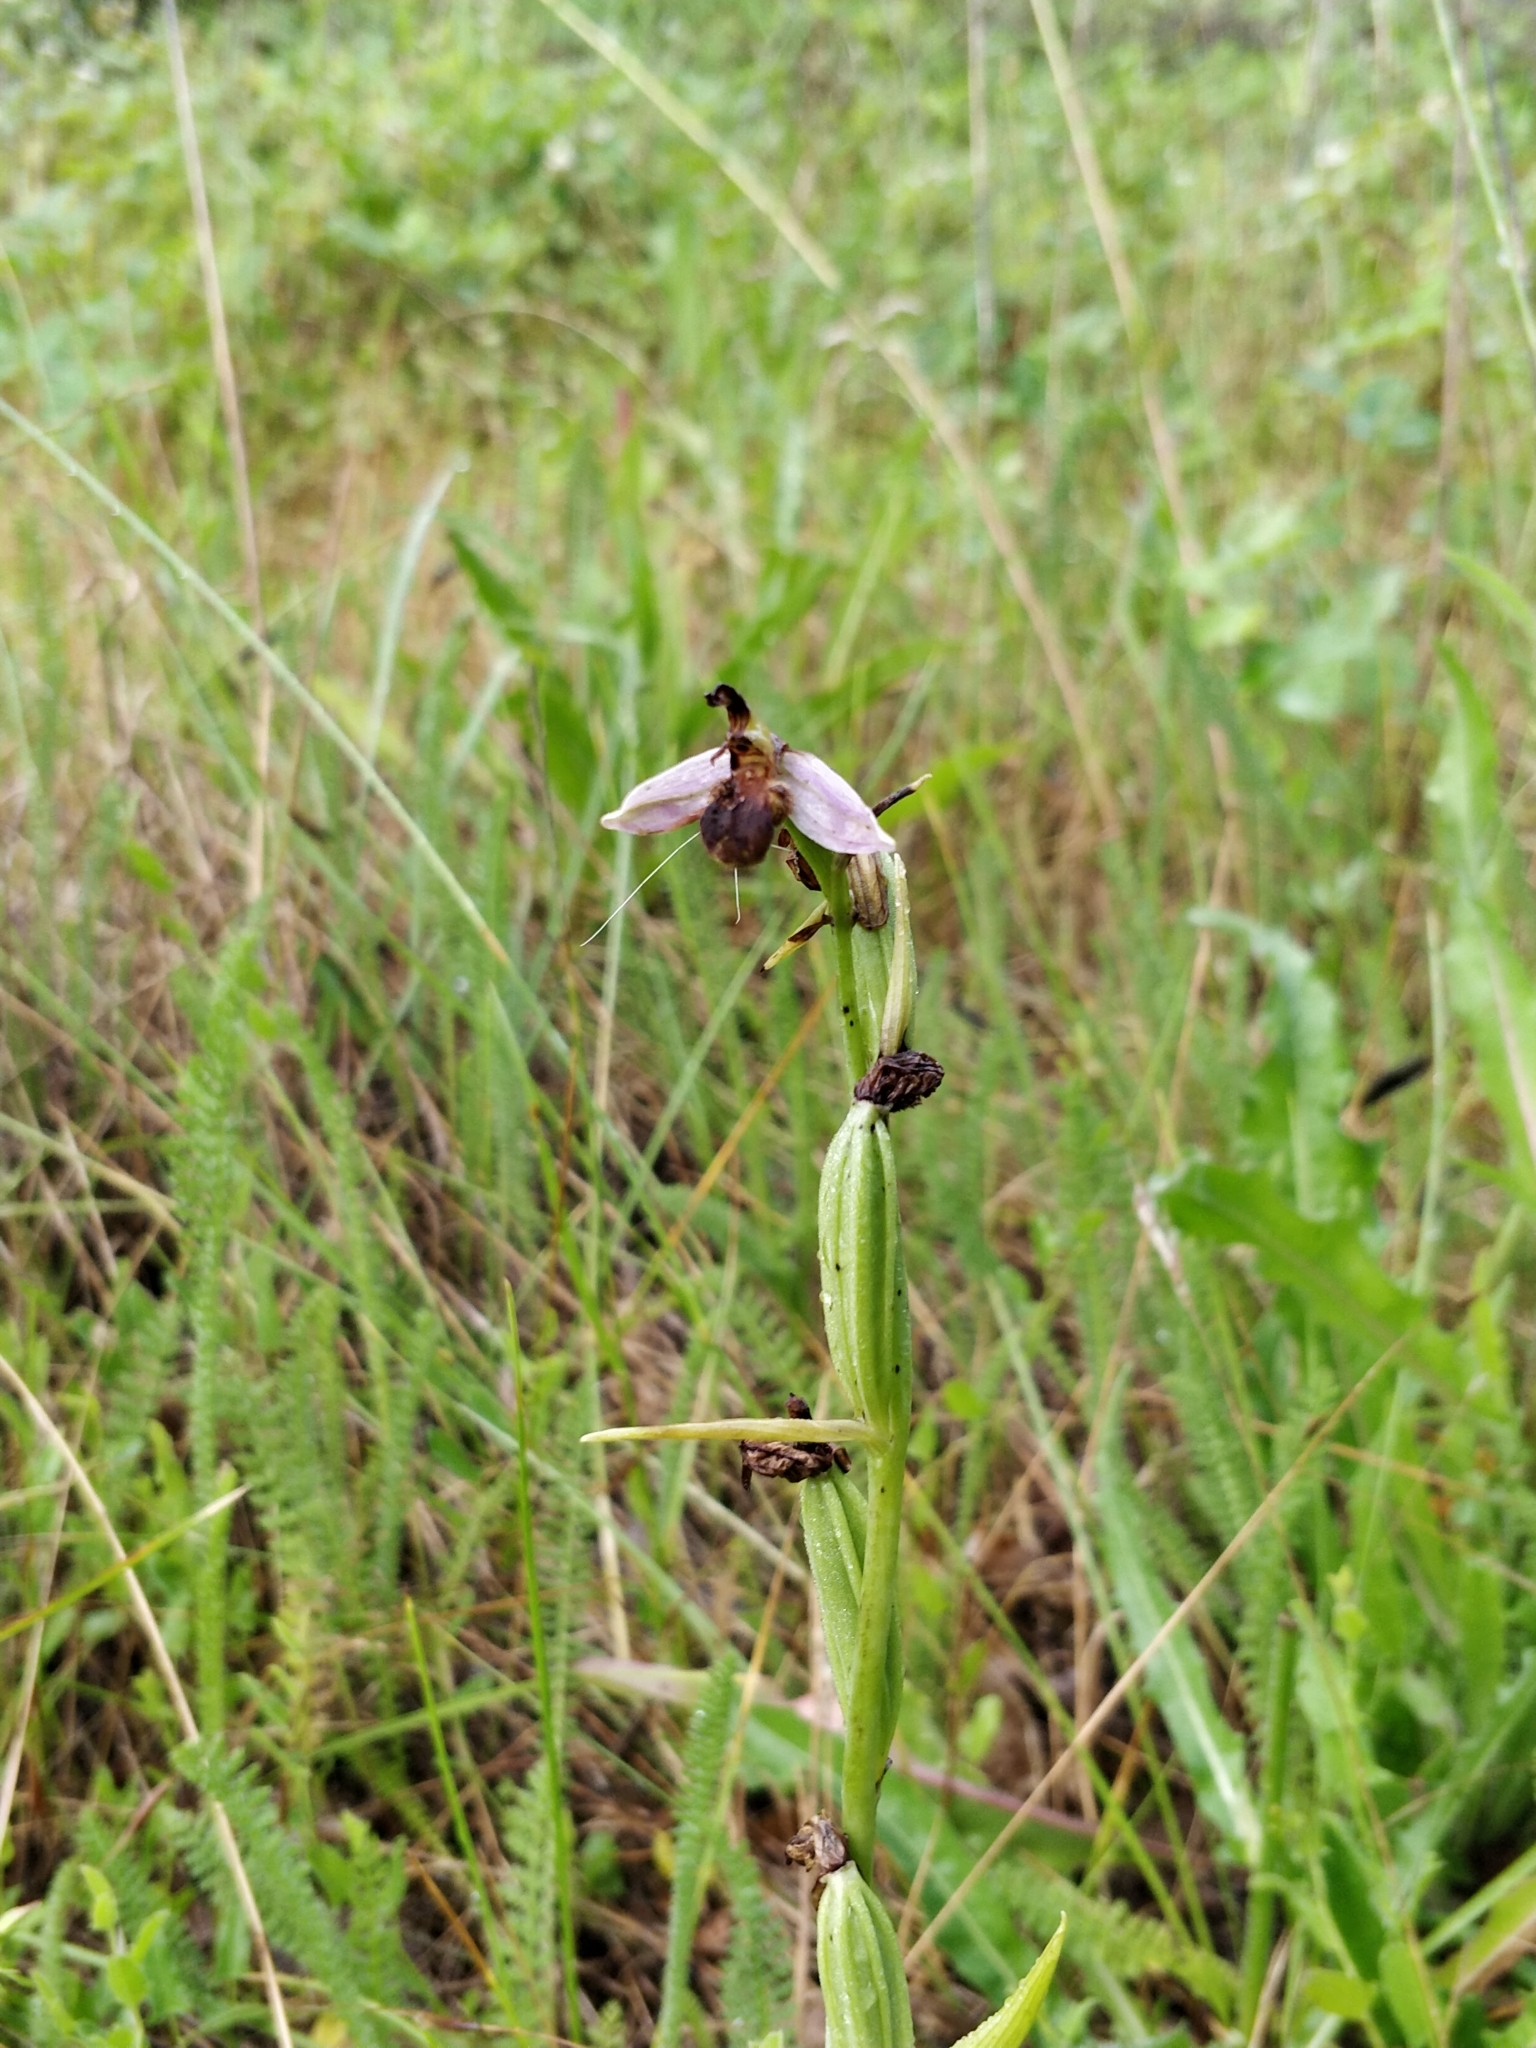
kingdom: Plantae
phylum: Tracheophyta
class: Liliopsida
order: Asparagales
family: Orchidaceae
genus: Ophrys
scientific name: Ophrys apifera
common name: Bee orchid
